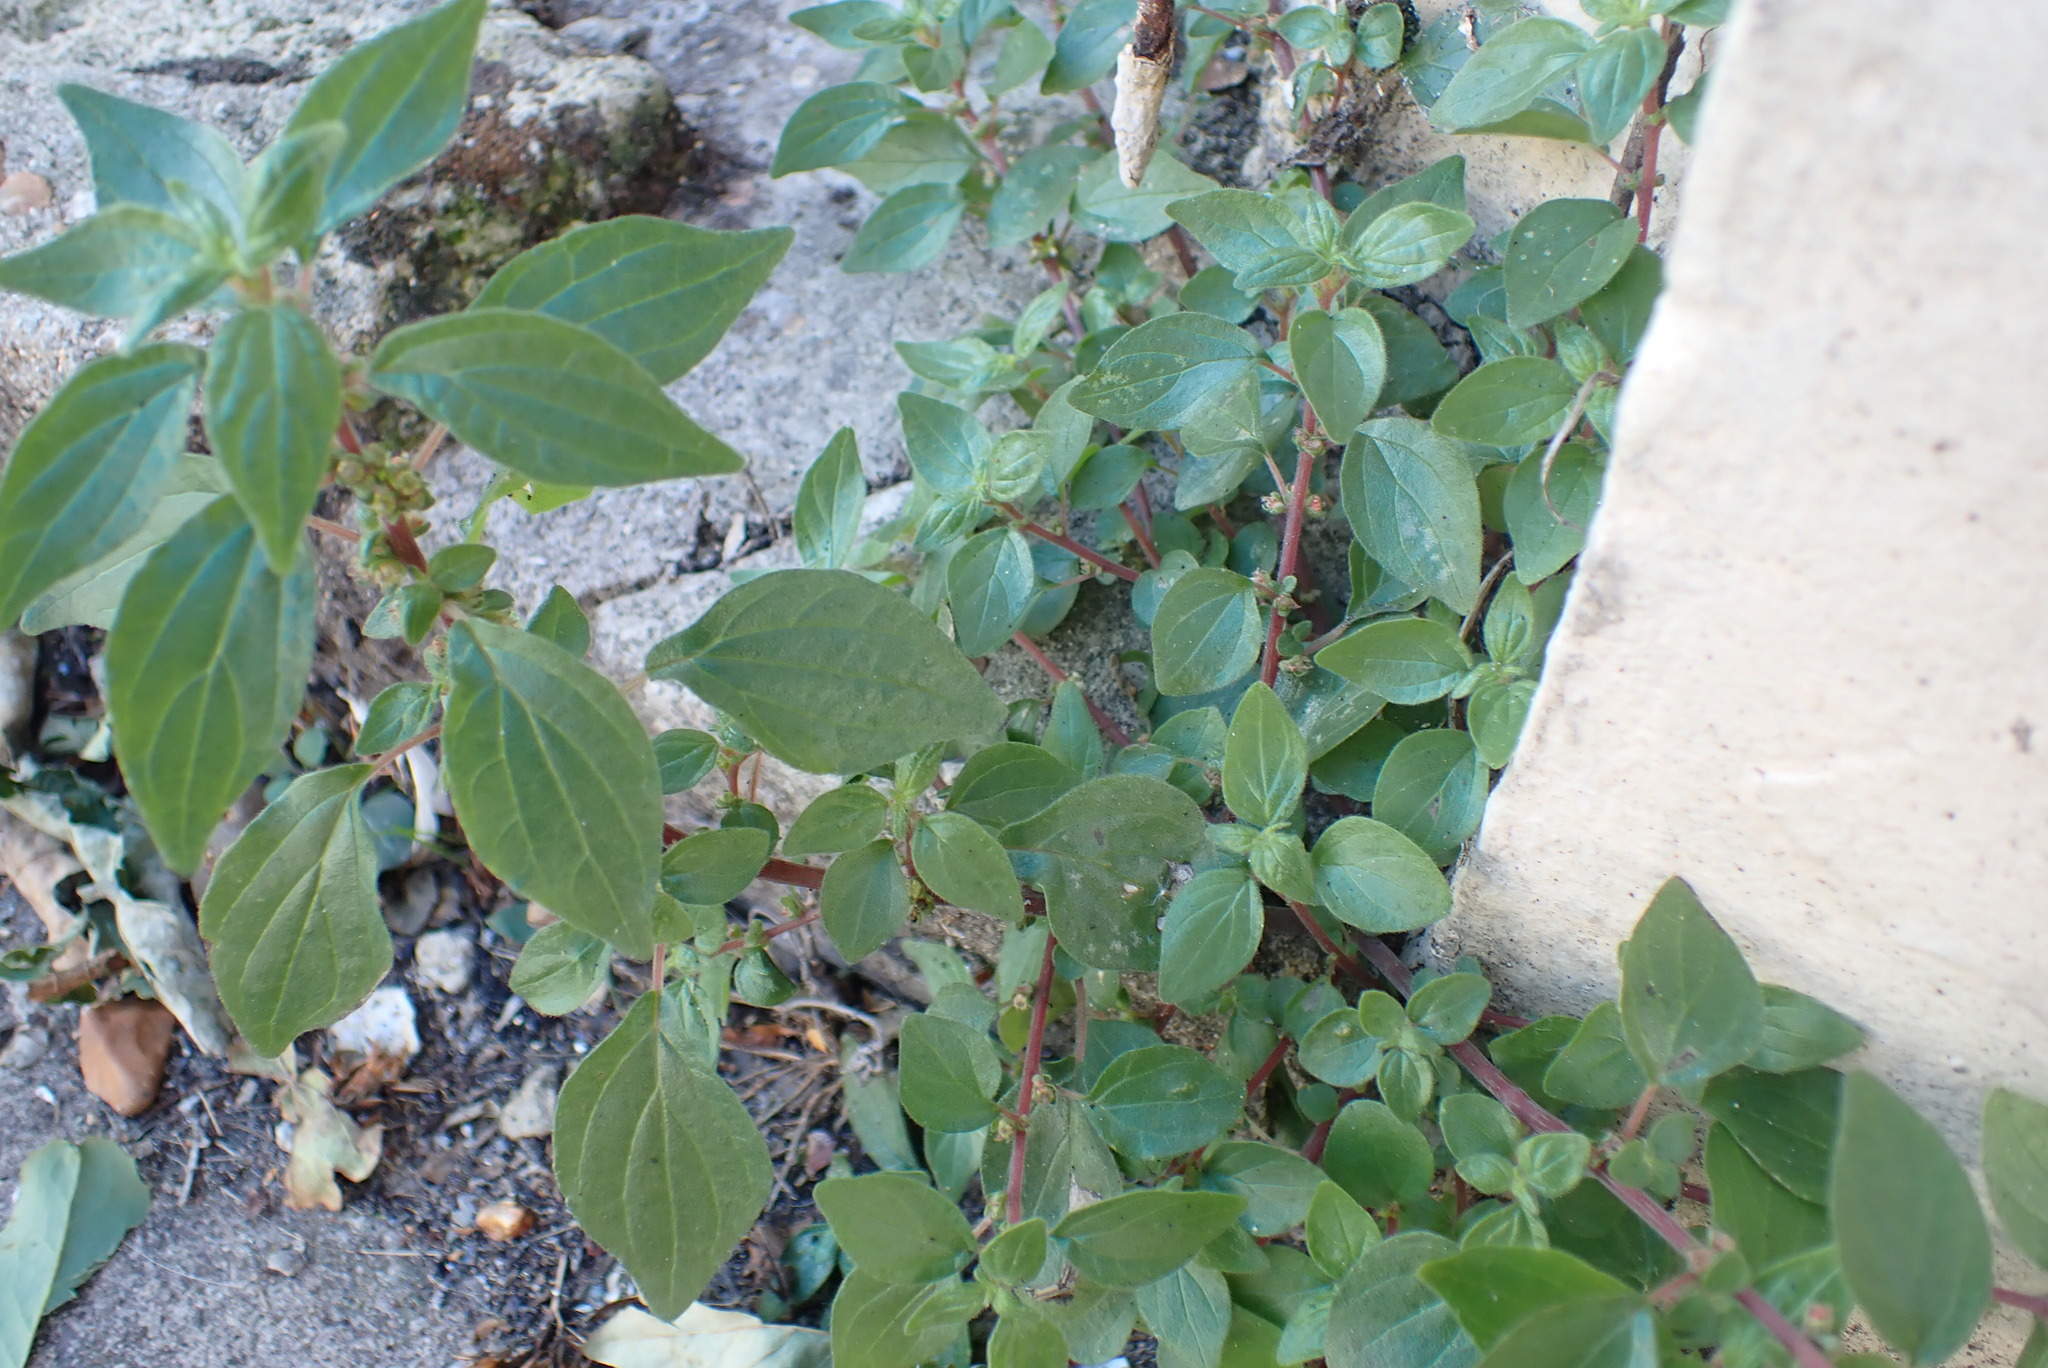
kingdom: Plantae
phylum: Tracheophyta
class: Magnoliopsida
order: Rosales
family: Urticaceae
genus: Parietaria
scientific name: Parietaria judaica
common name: Pellitory-of-the-wall
